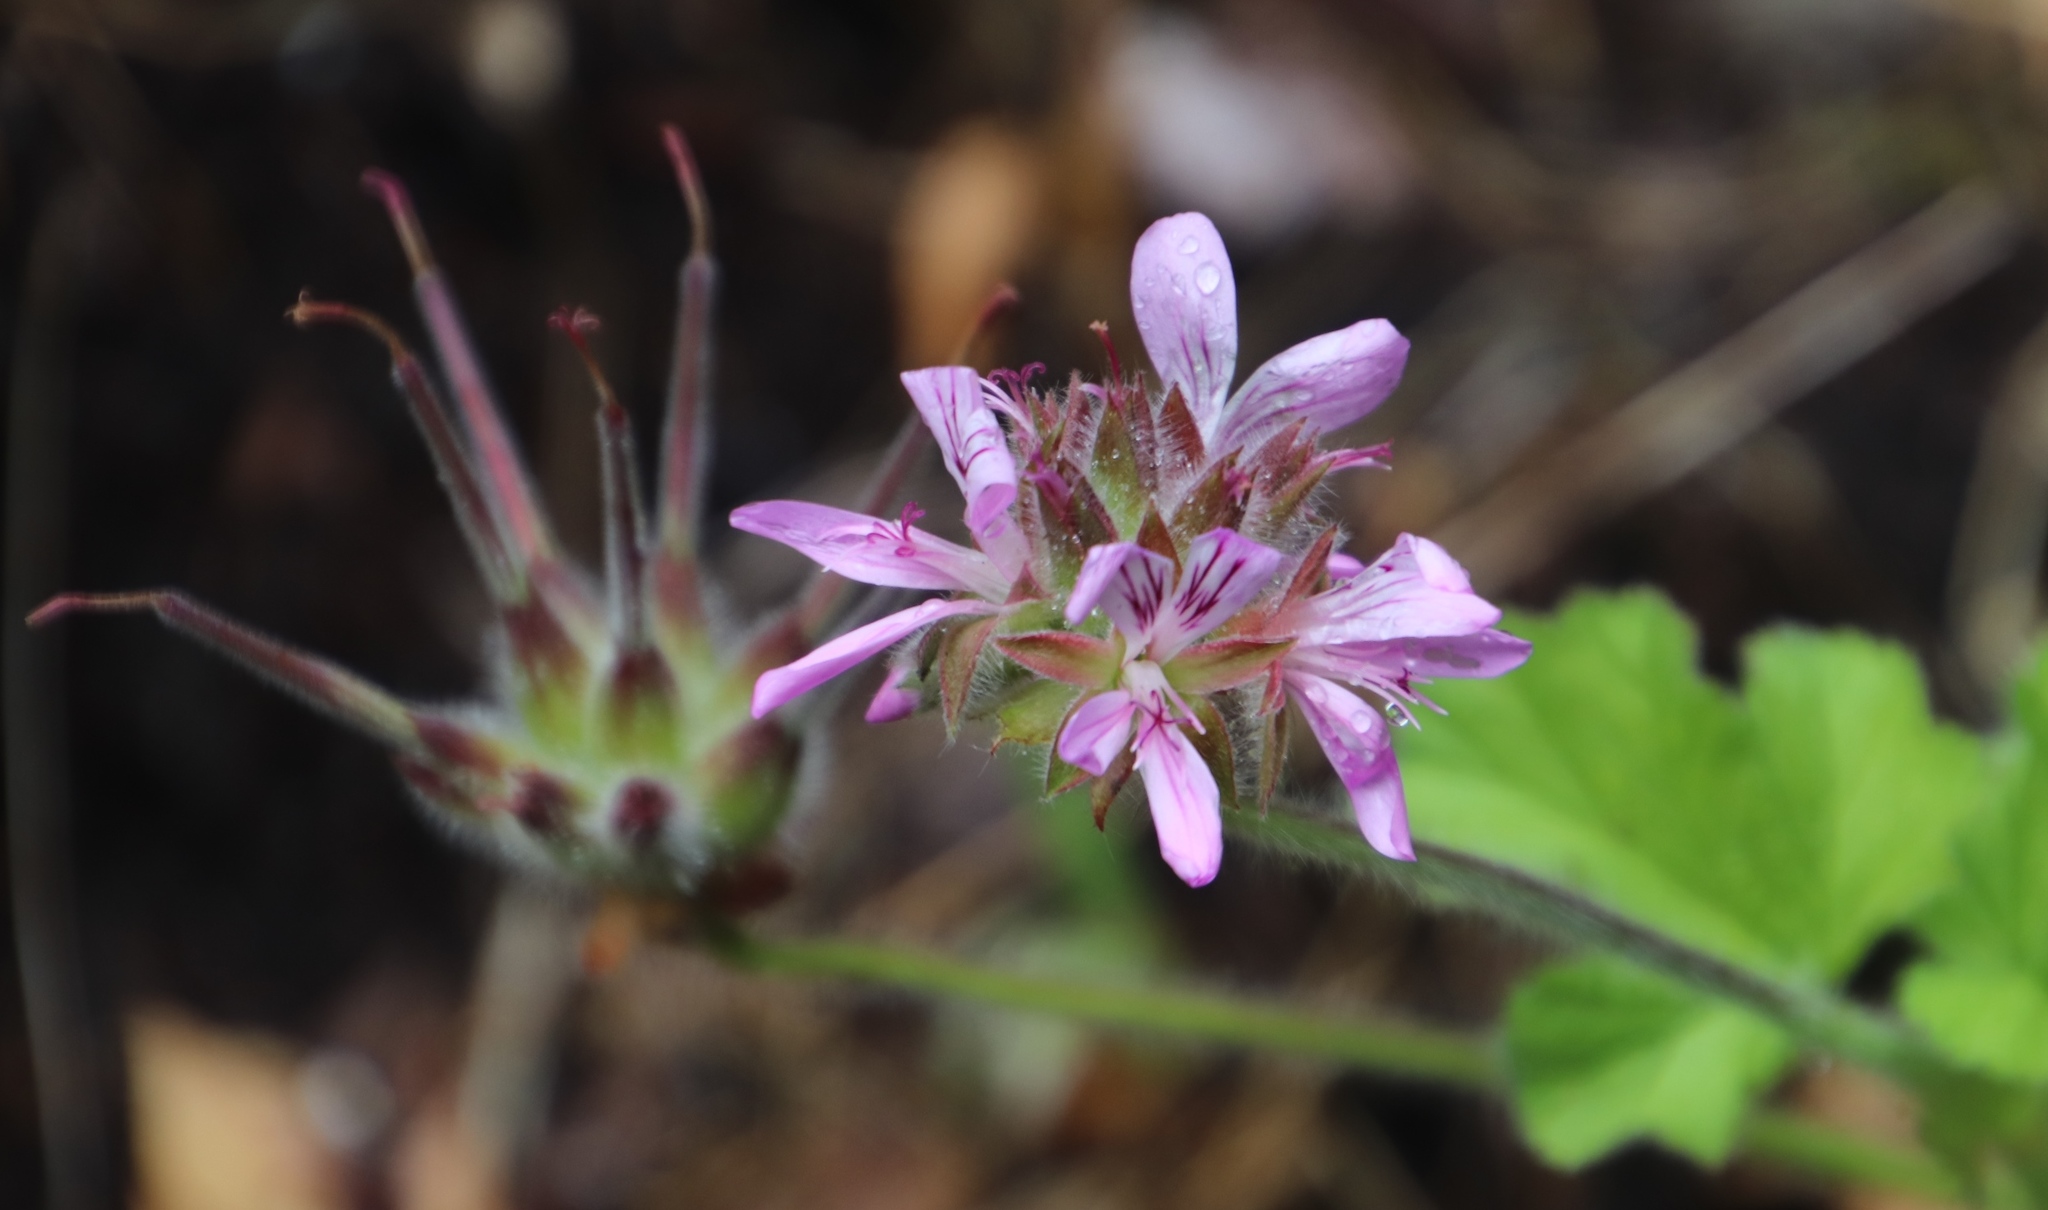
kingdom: Plantae
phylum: Tracheophyta
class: Magnoliopsida
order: Geraniales
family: Geraniaceae
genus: Pelargonium
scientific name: Pelargonium capitatum
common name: Rose scented geranium
